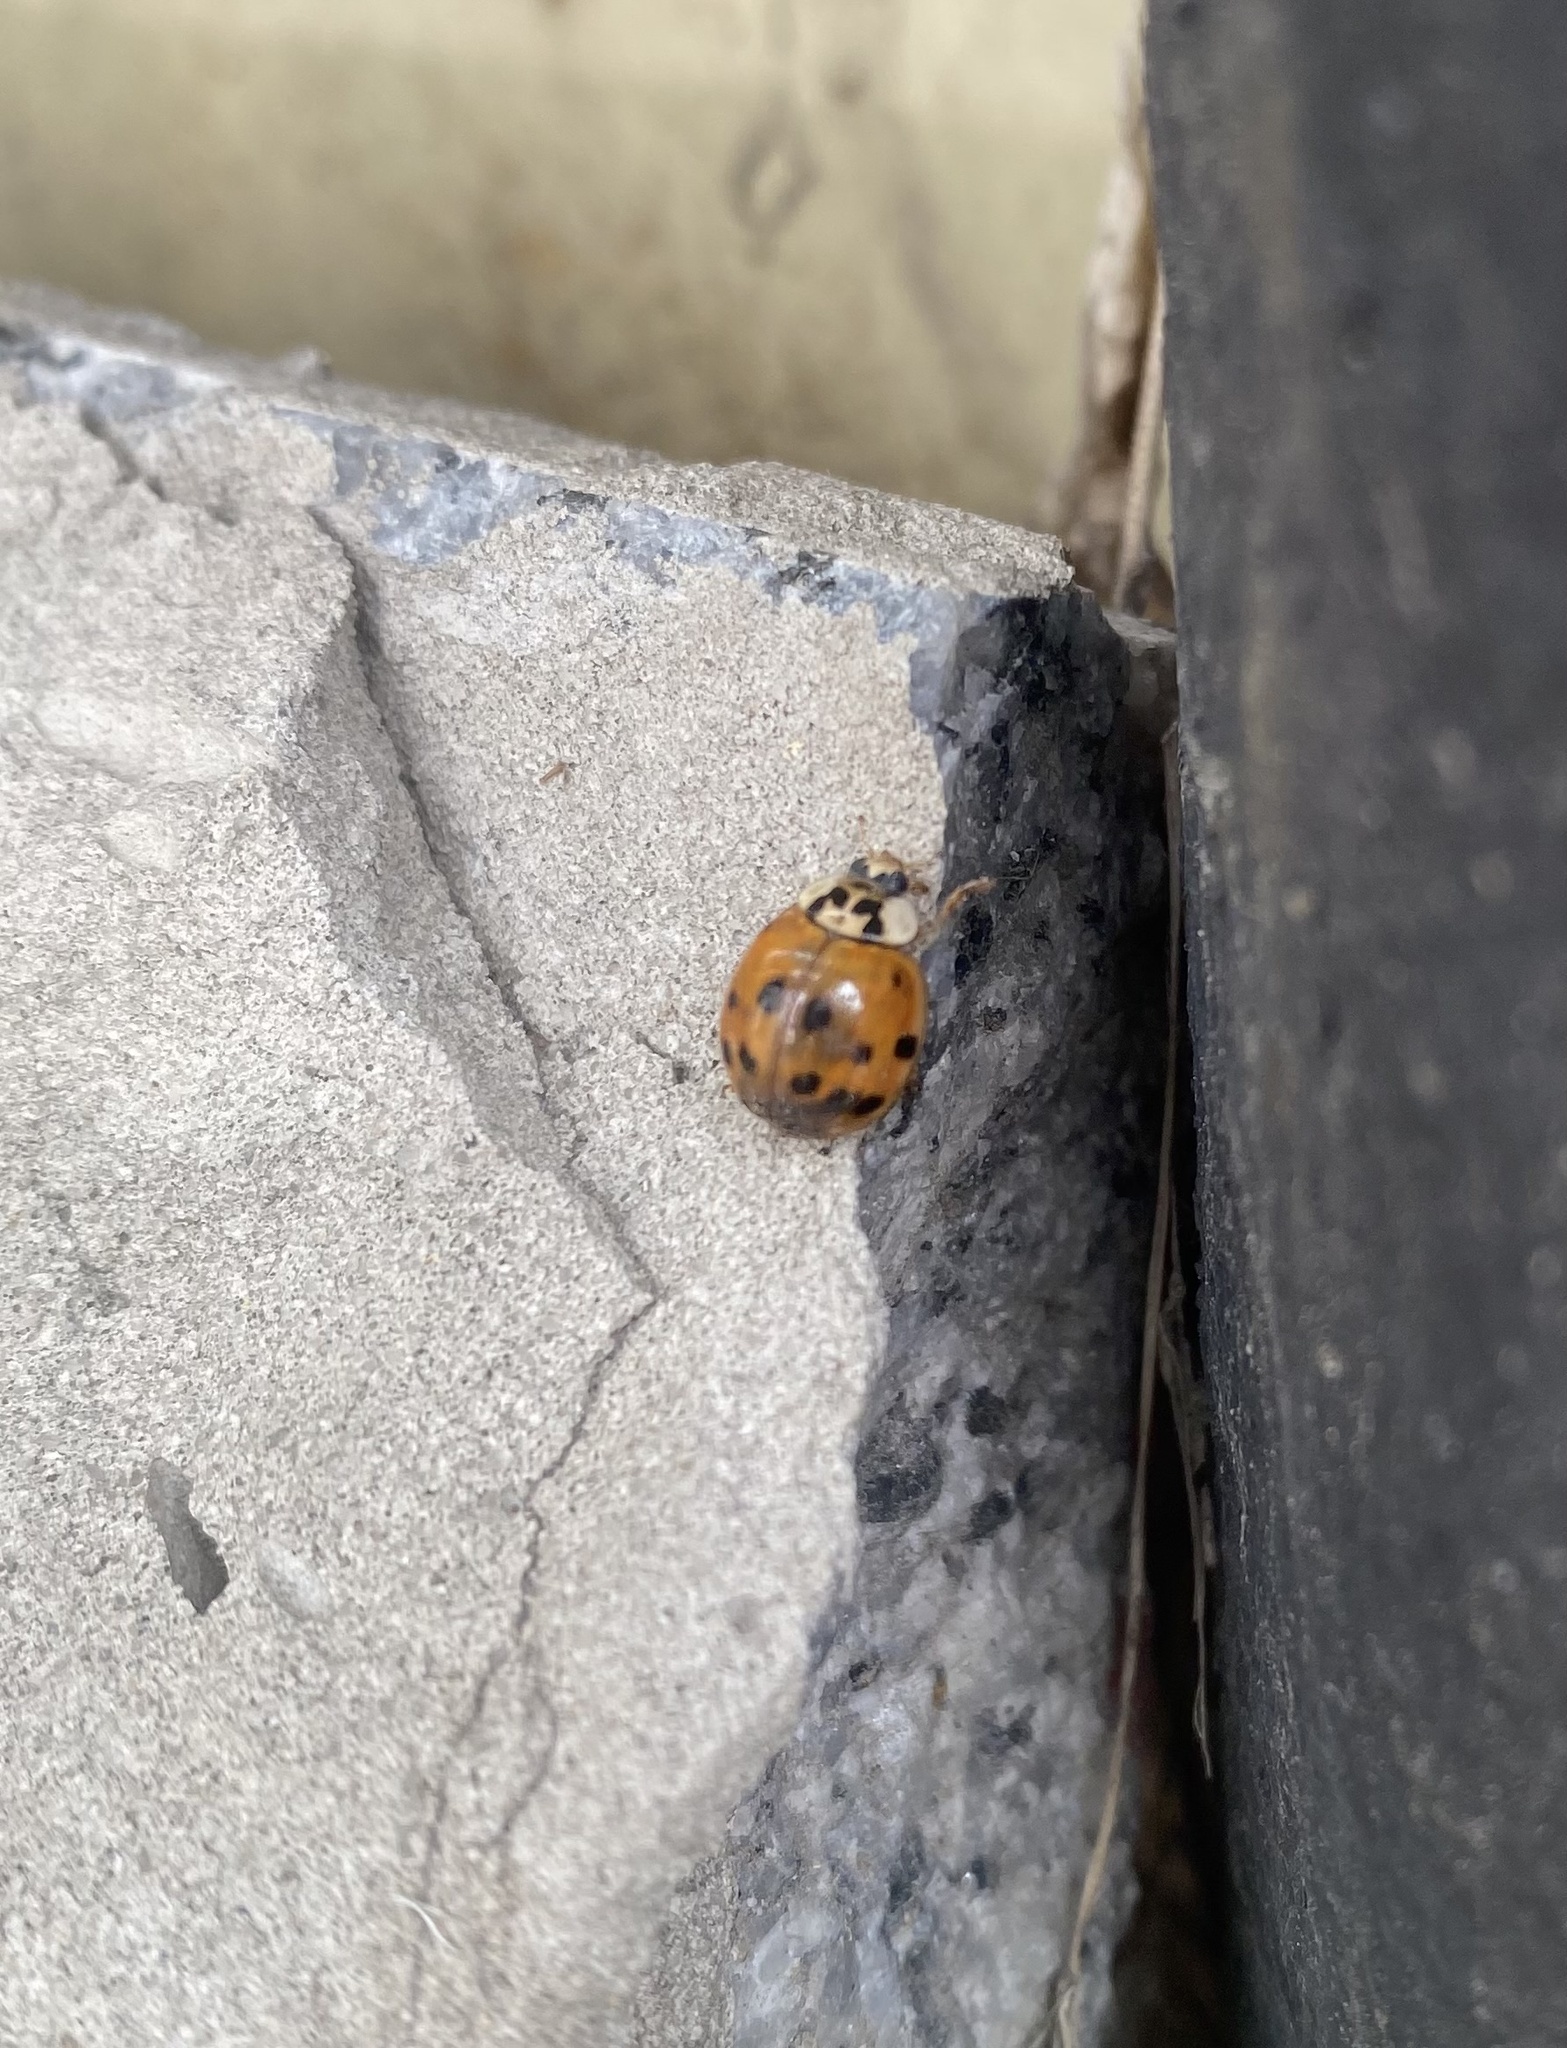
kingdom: Animalia
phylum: Arthropoda
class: Insecta
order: Coleoptera
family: Coccinellidae
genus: Harmonia
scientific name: Harmonia axyridis
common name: Harlequin ladybird
